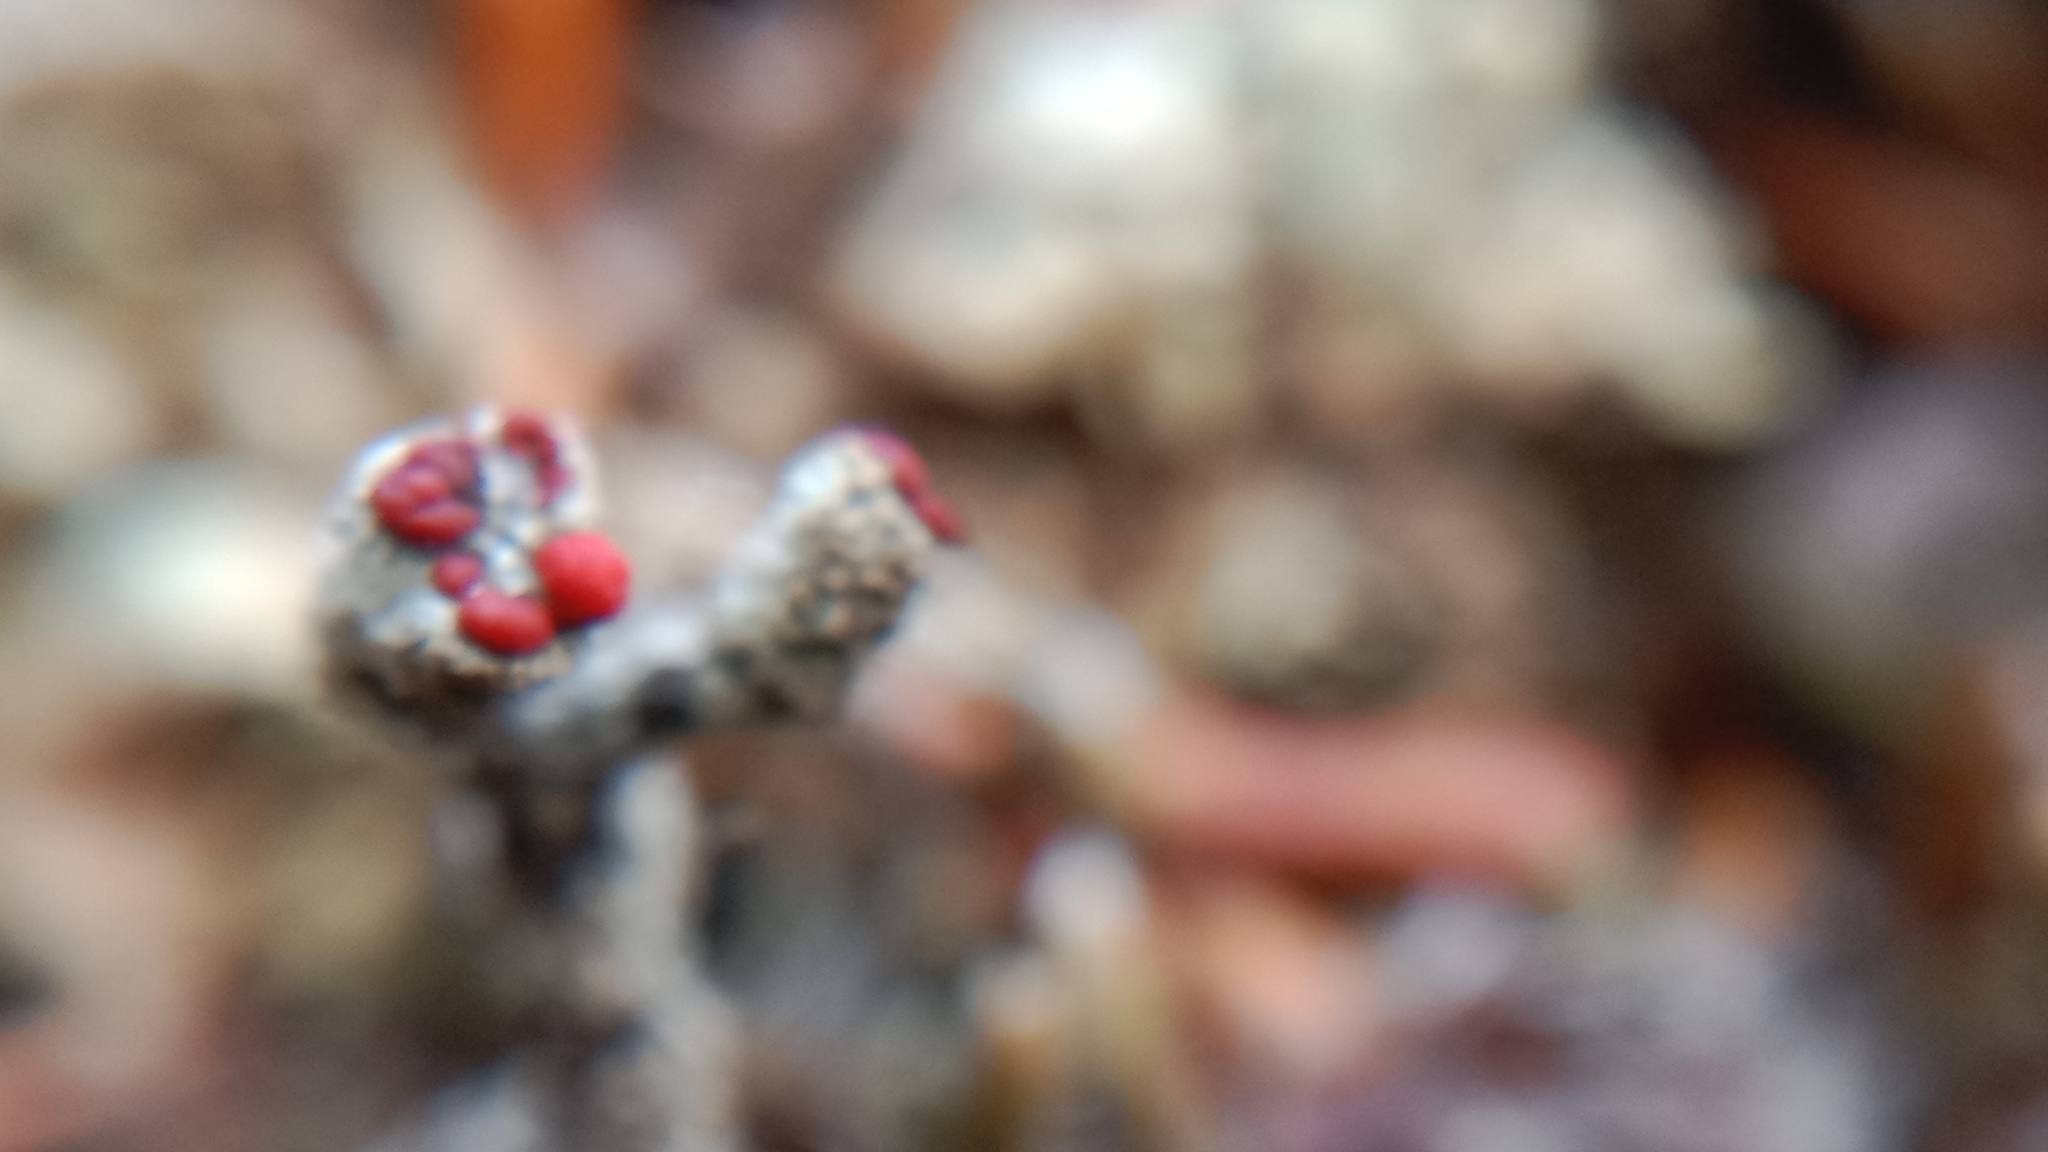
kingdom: Fungi
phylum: Ascomycota
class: Lecanoromycetes
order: Lecanorales
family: Cladoniaceae
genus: Cladonia
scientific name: Cladonia floerkeana
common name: Gritty british soldiers lichen
